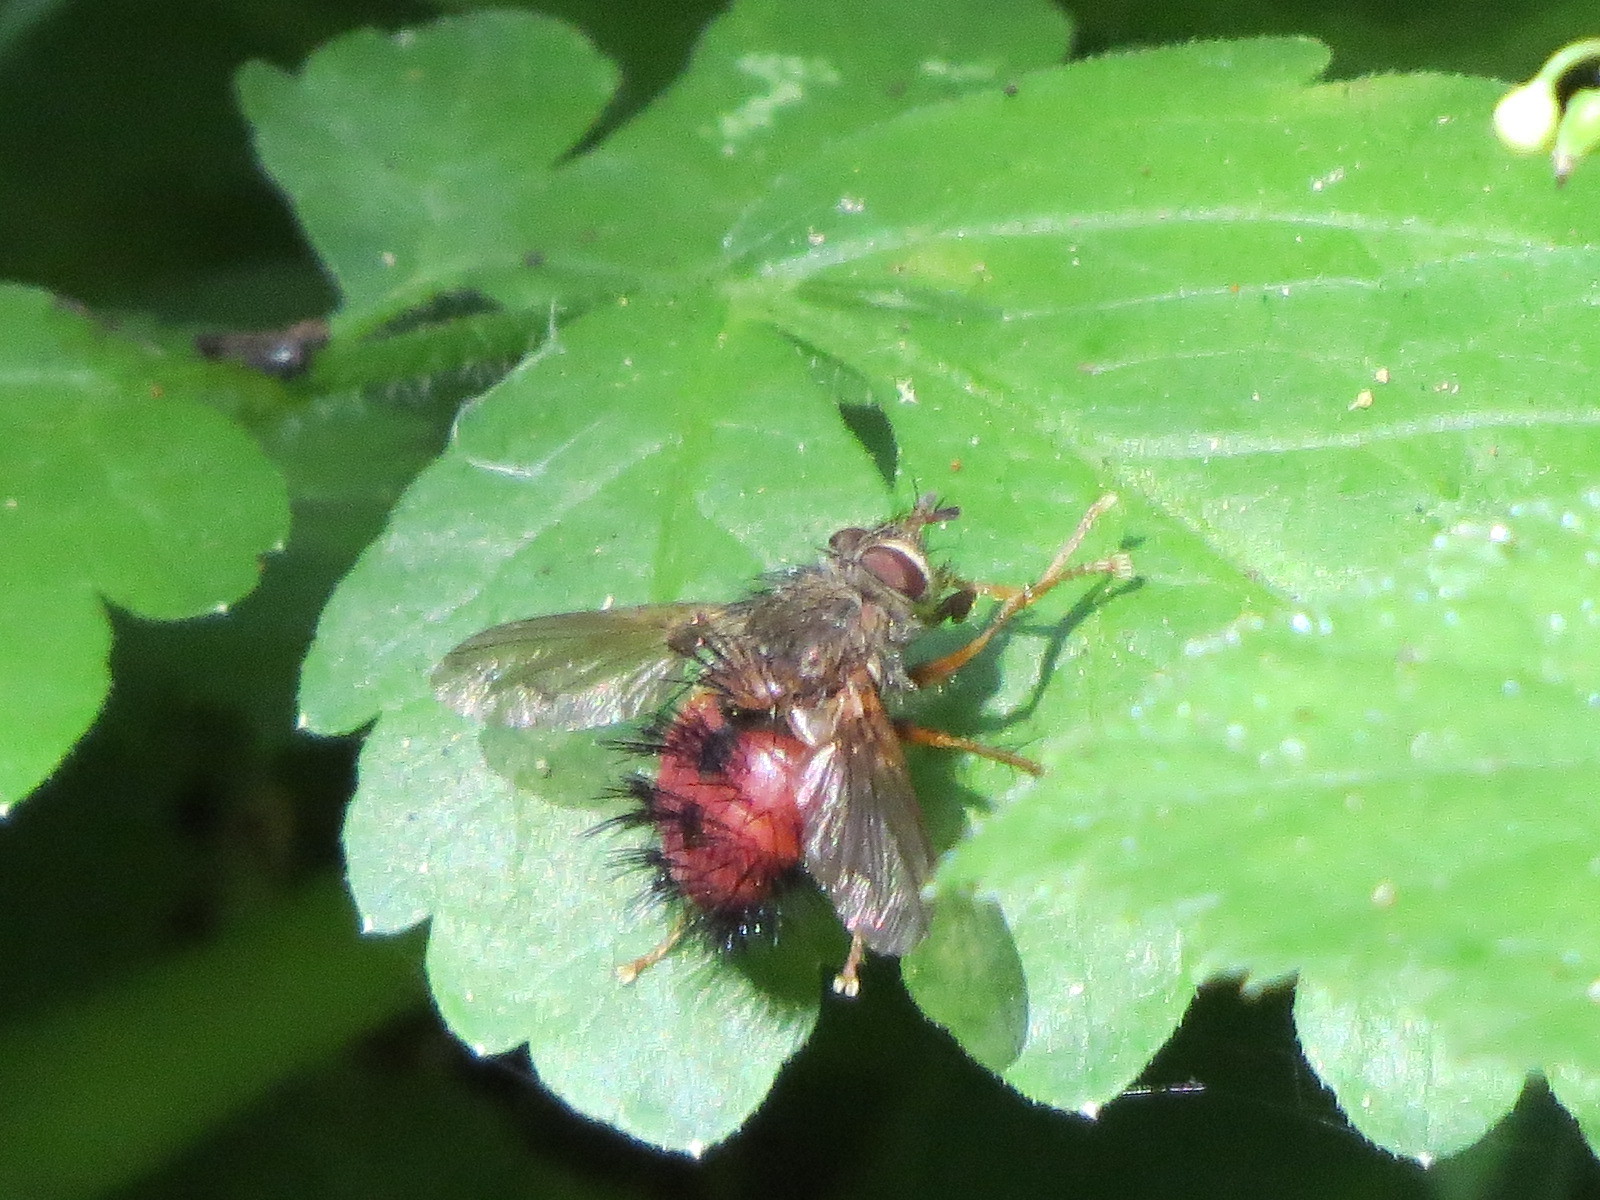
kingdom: Animalia
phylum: Arthropoda
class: Insecta
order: Diptera
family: Tachinidae
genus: Hystricia
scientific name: Hystricia abrupta
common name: Tomato bristle fly
